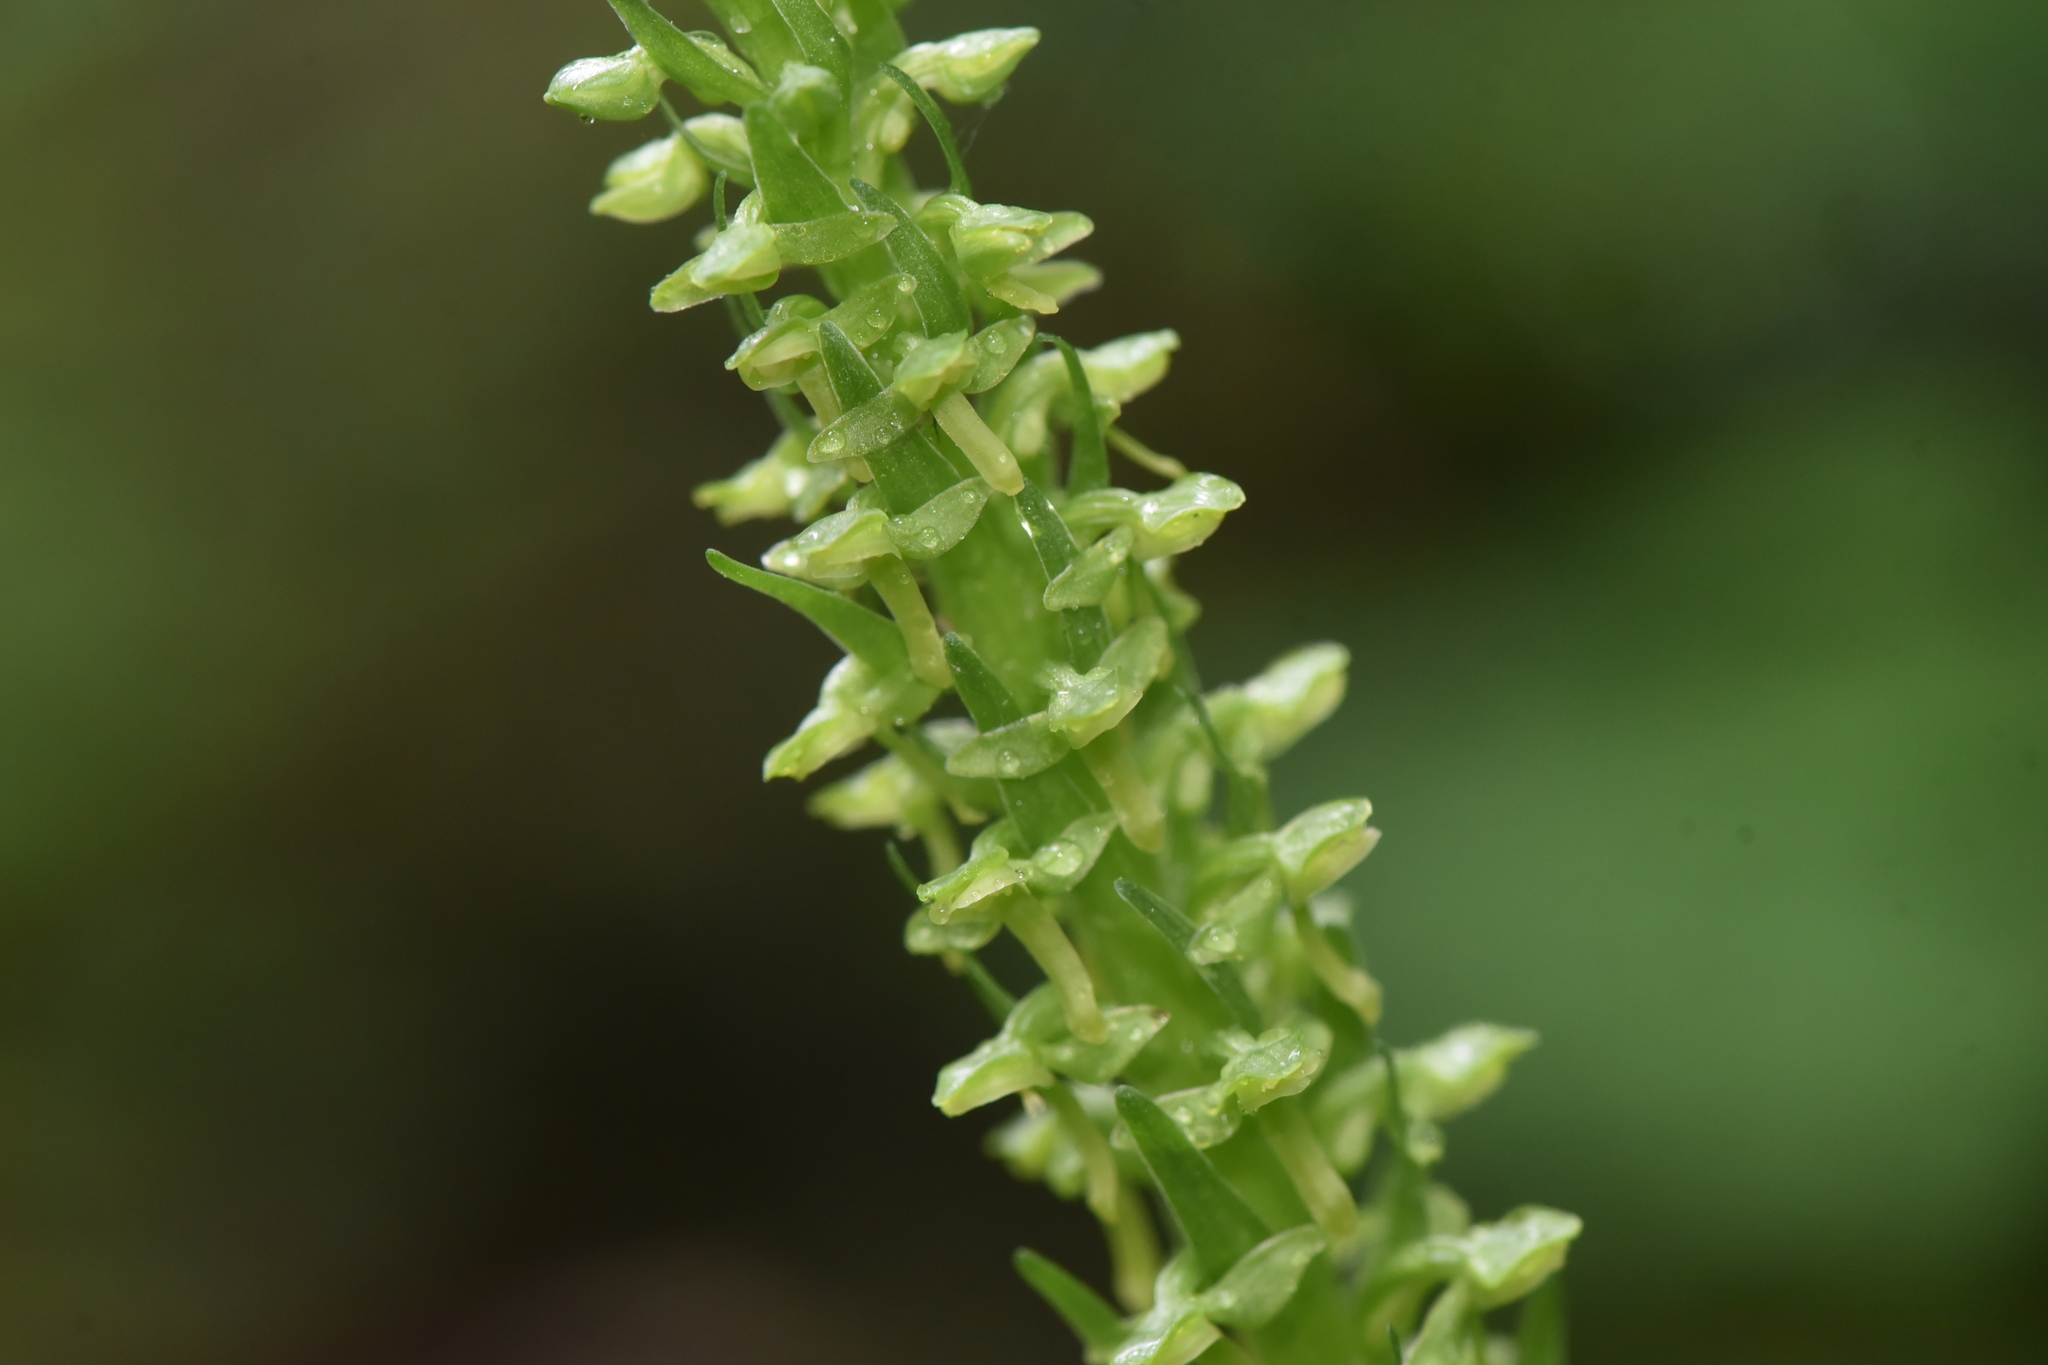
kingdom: Plantae
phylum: Tracheophyta
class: Liliopsida
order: Asparagales
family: Orchidaceae
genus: Platanthera
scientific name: Platanthera stricta
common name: Slender bog orchid
